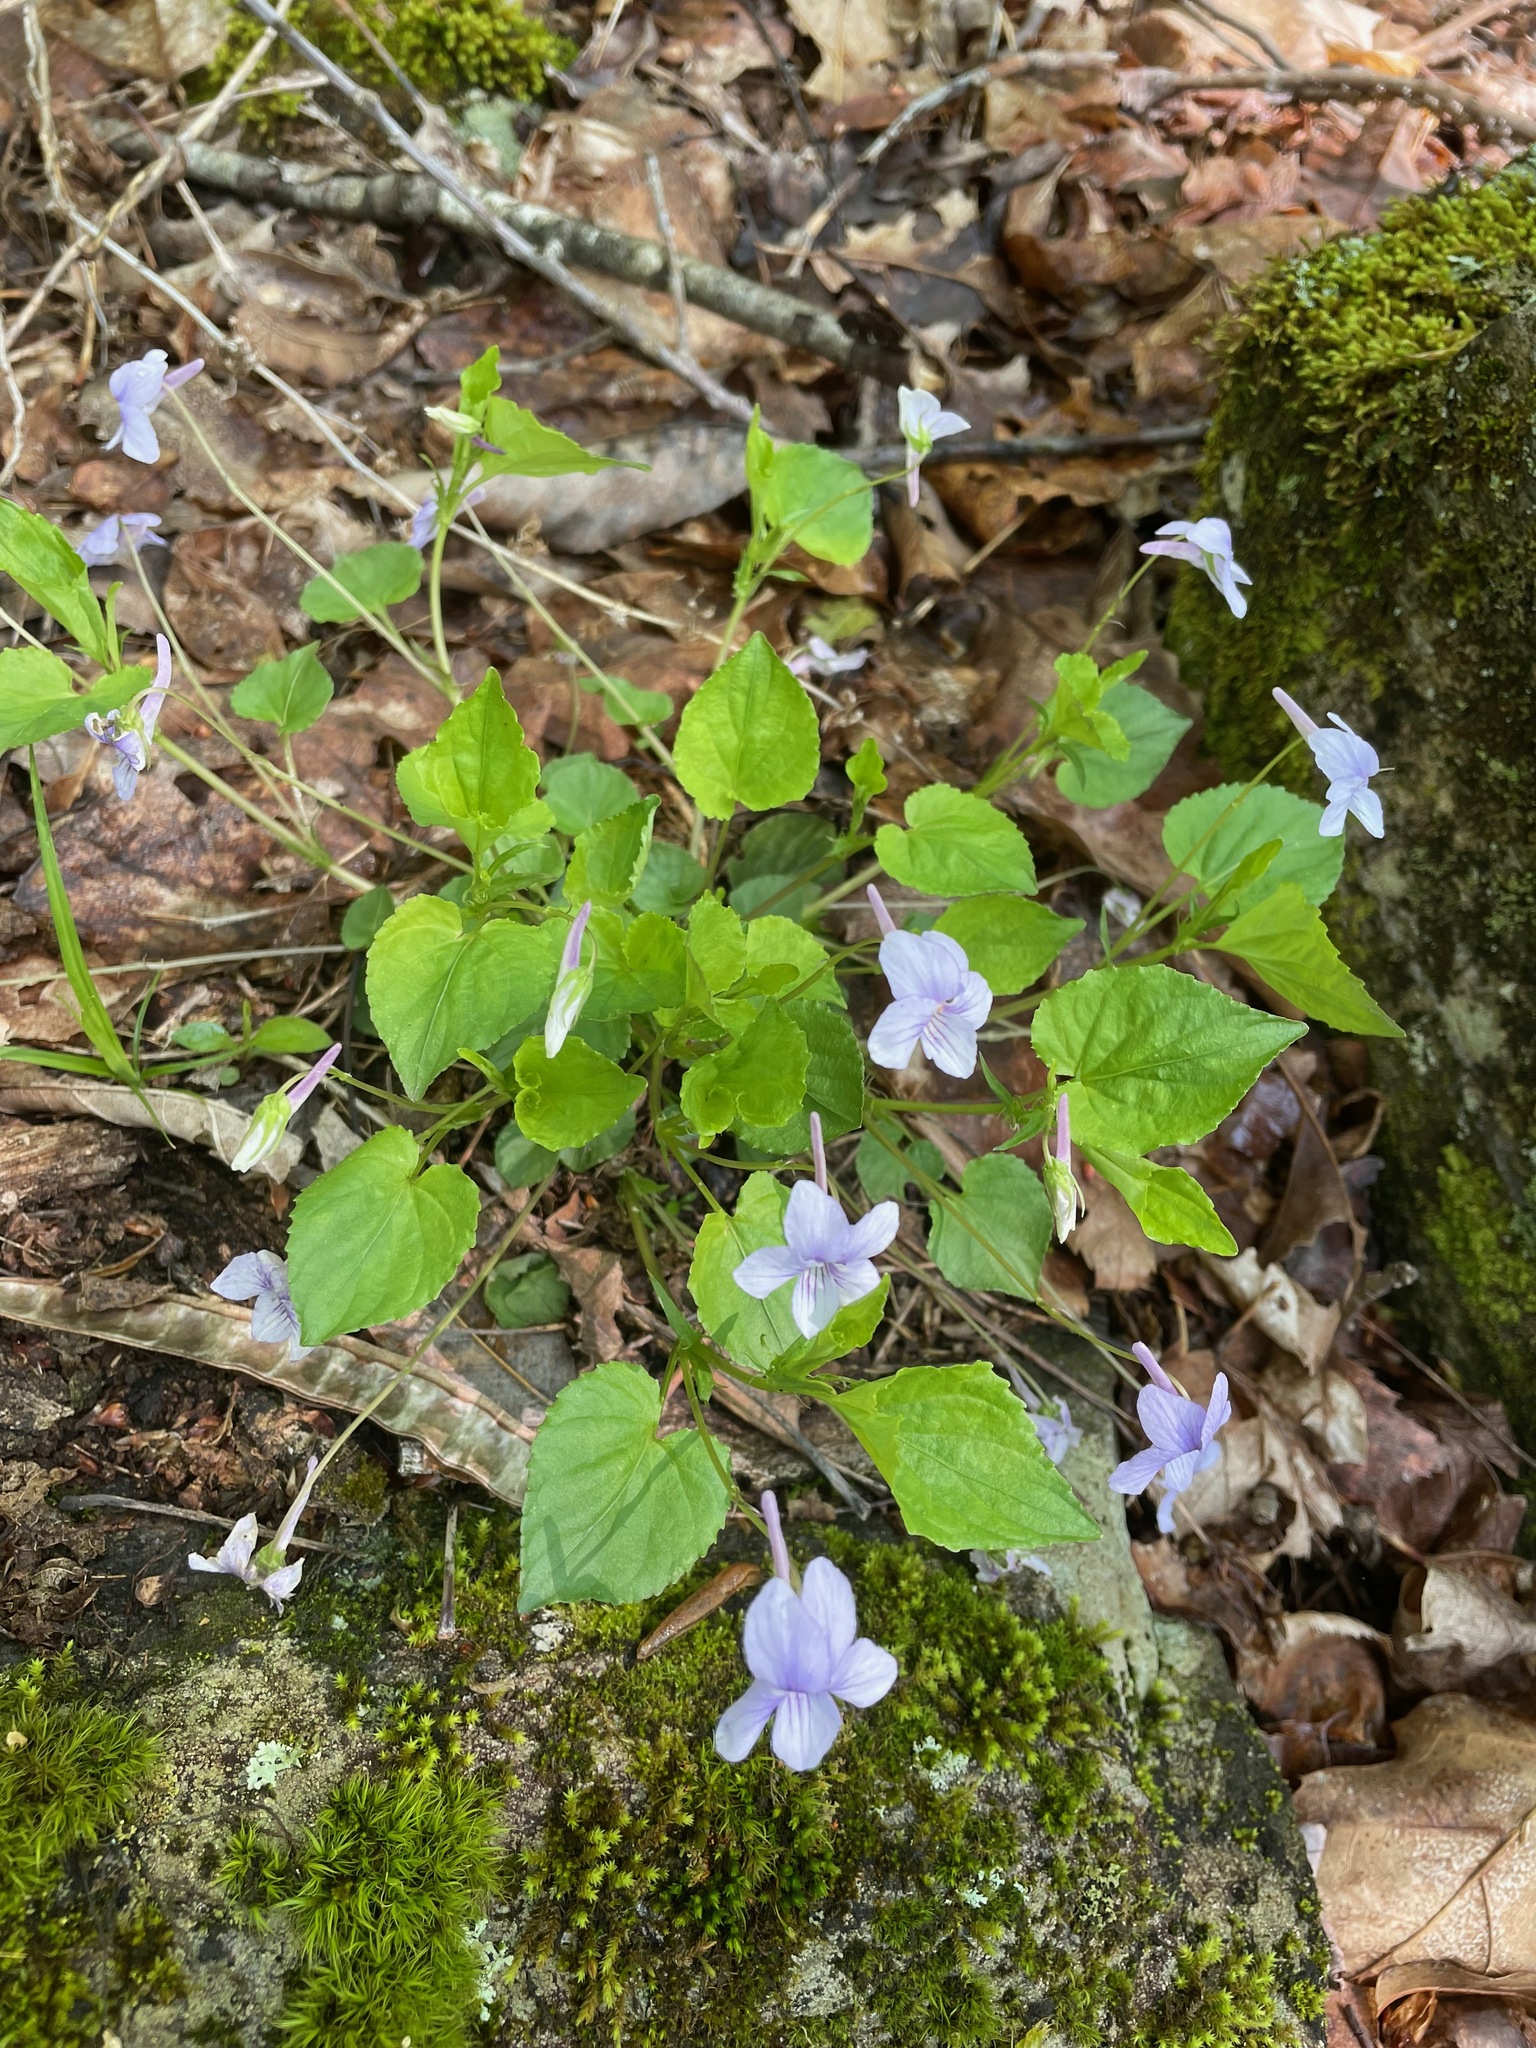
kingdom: Plantae
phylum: Tracheophyta
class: Magnoliopsida
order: Malpighiales
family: Violaceae
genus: Viola
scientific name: Viola rostrata
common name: Long-spur violet
